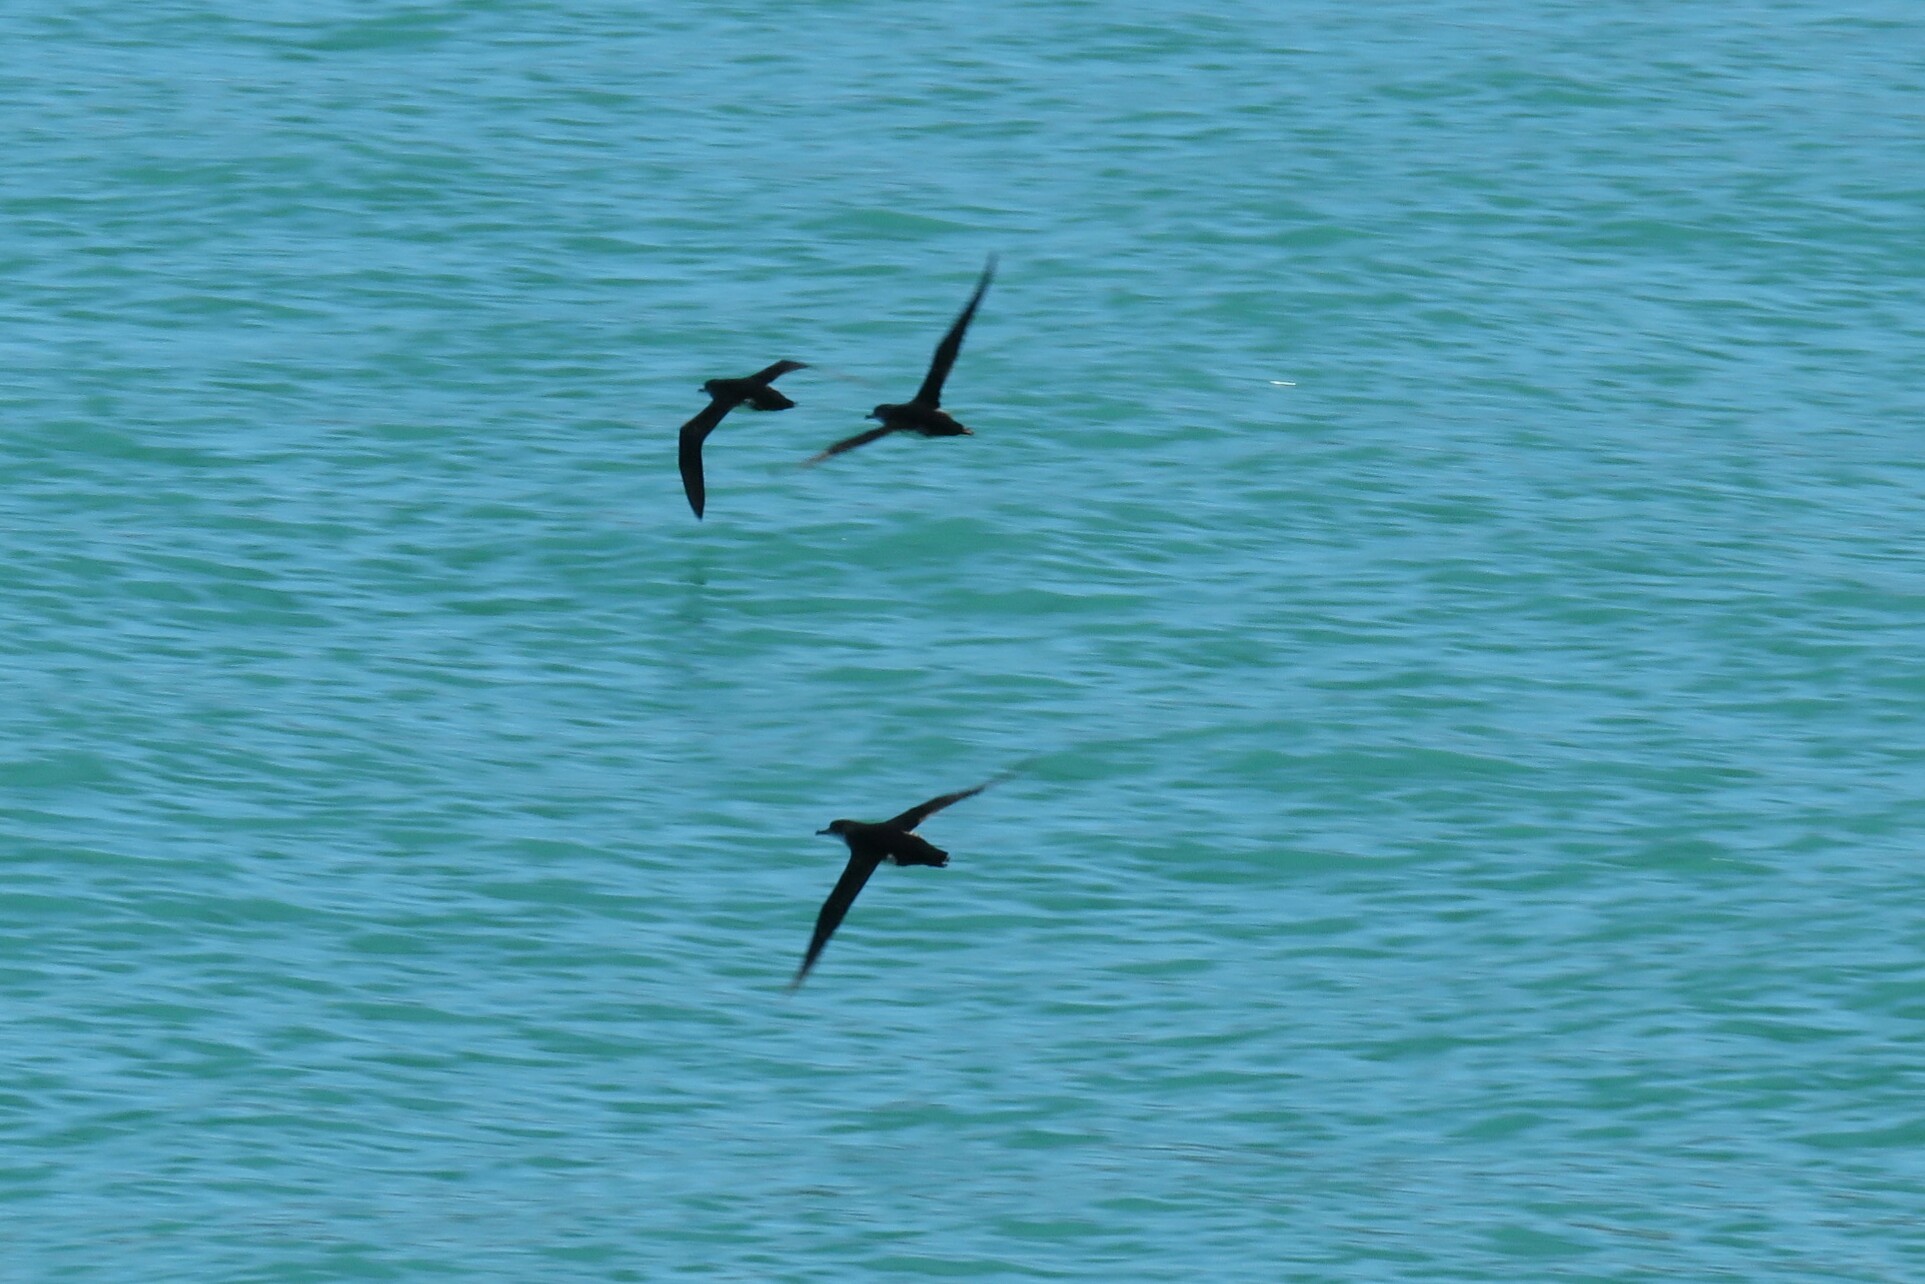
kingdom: Animalia
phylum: Chordata
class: Aves
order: Procellariiformes
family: Procellariidae
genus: Puffinus
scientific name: Puffinus yelkouan
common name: Yelkouan shearwater
